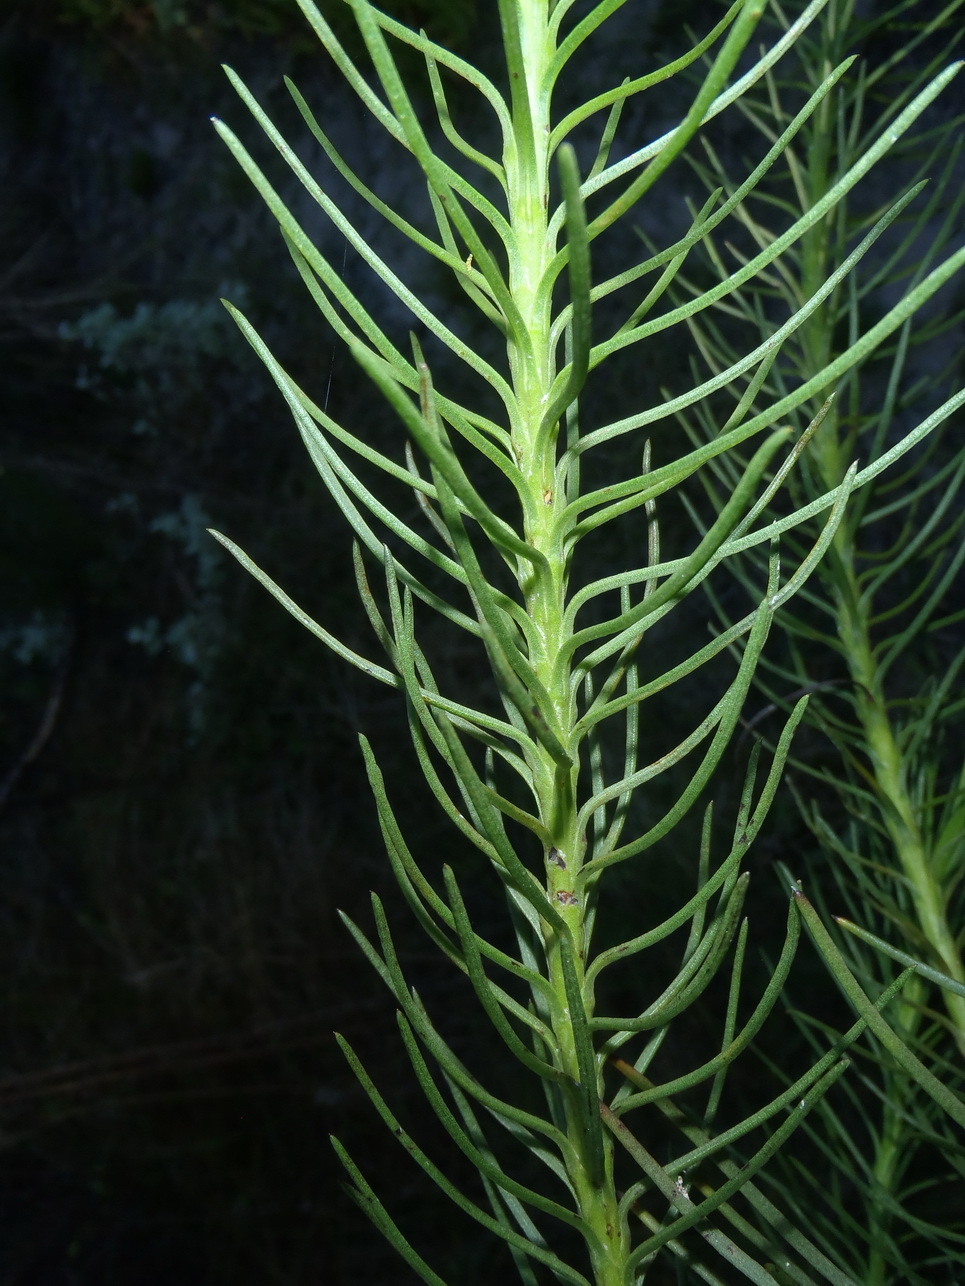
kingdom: Plantae
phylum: Tracheophyta
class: Magnoliopsida
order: Asterales
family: Asteraceae
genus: Athanasia
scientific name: Athanasia linifolia
